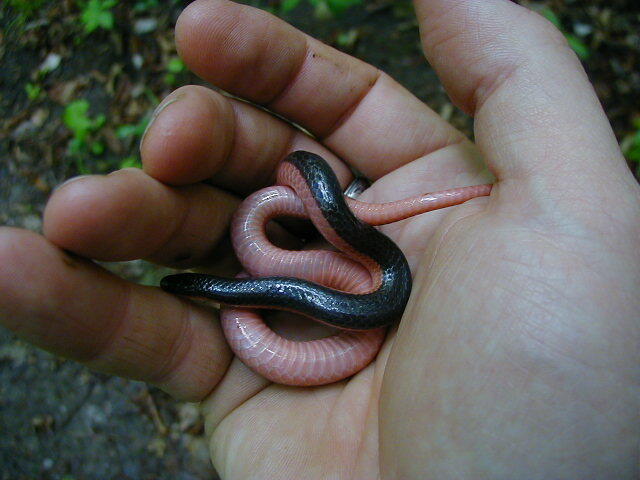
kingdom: Animalia
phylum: Chordata
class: Squamata
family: Colubridae
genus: Carphophis
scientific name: Carphophis vermis
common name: Western worm snake
